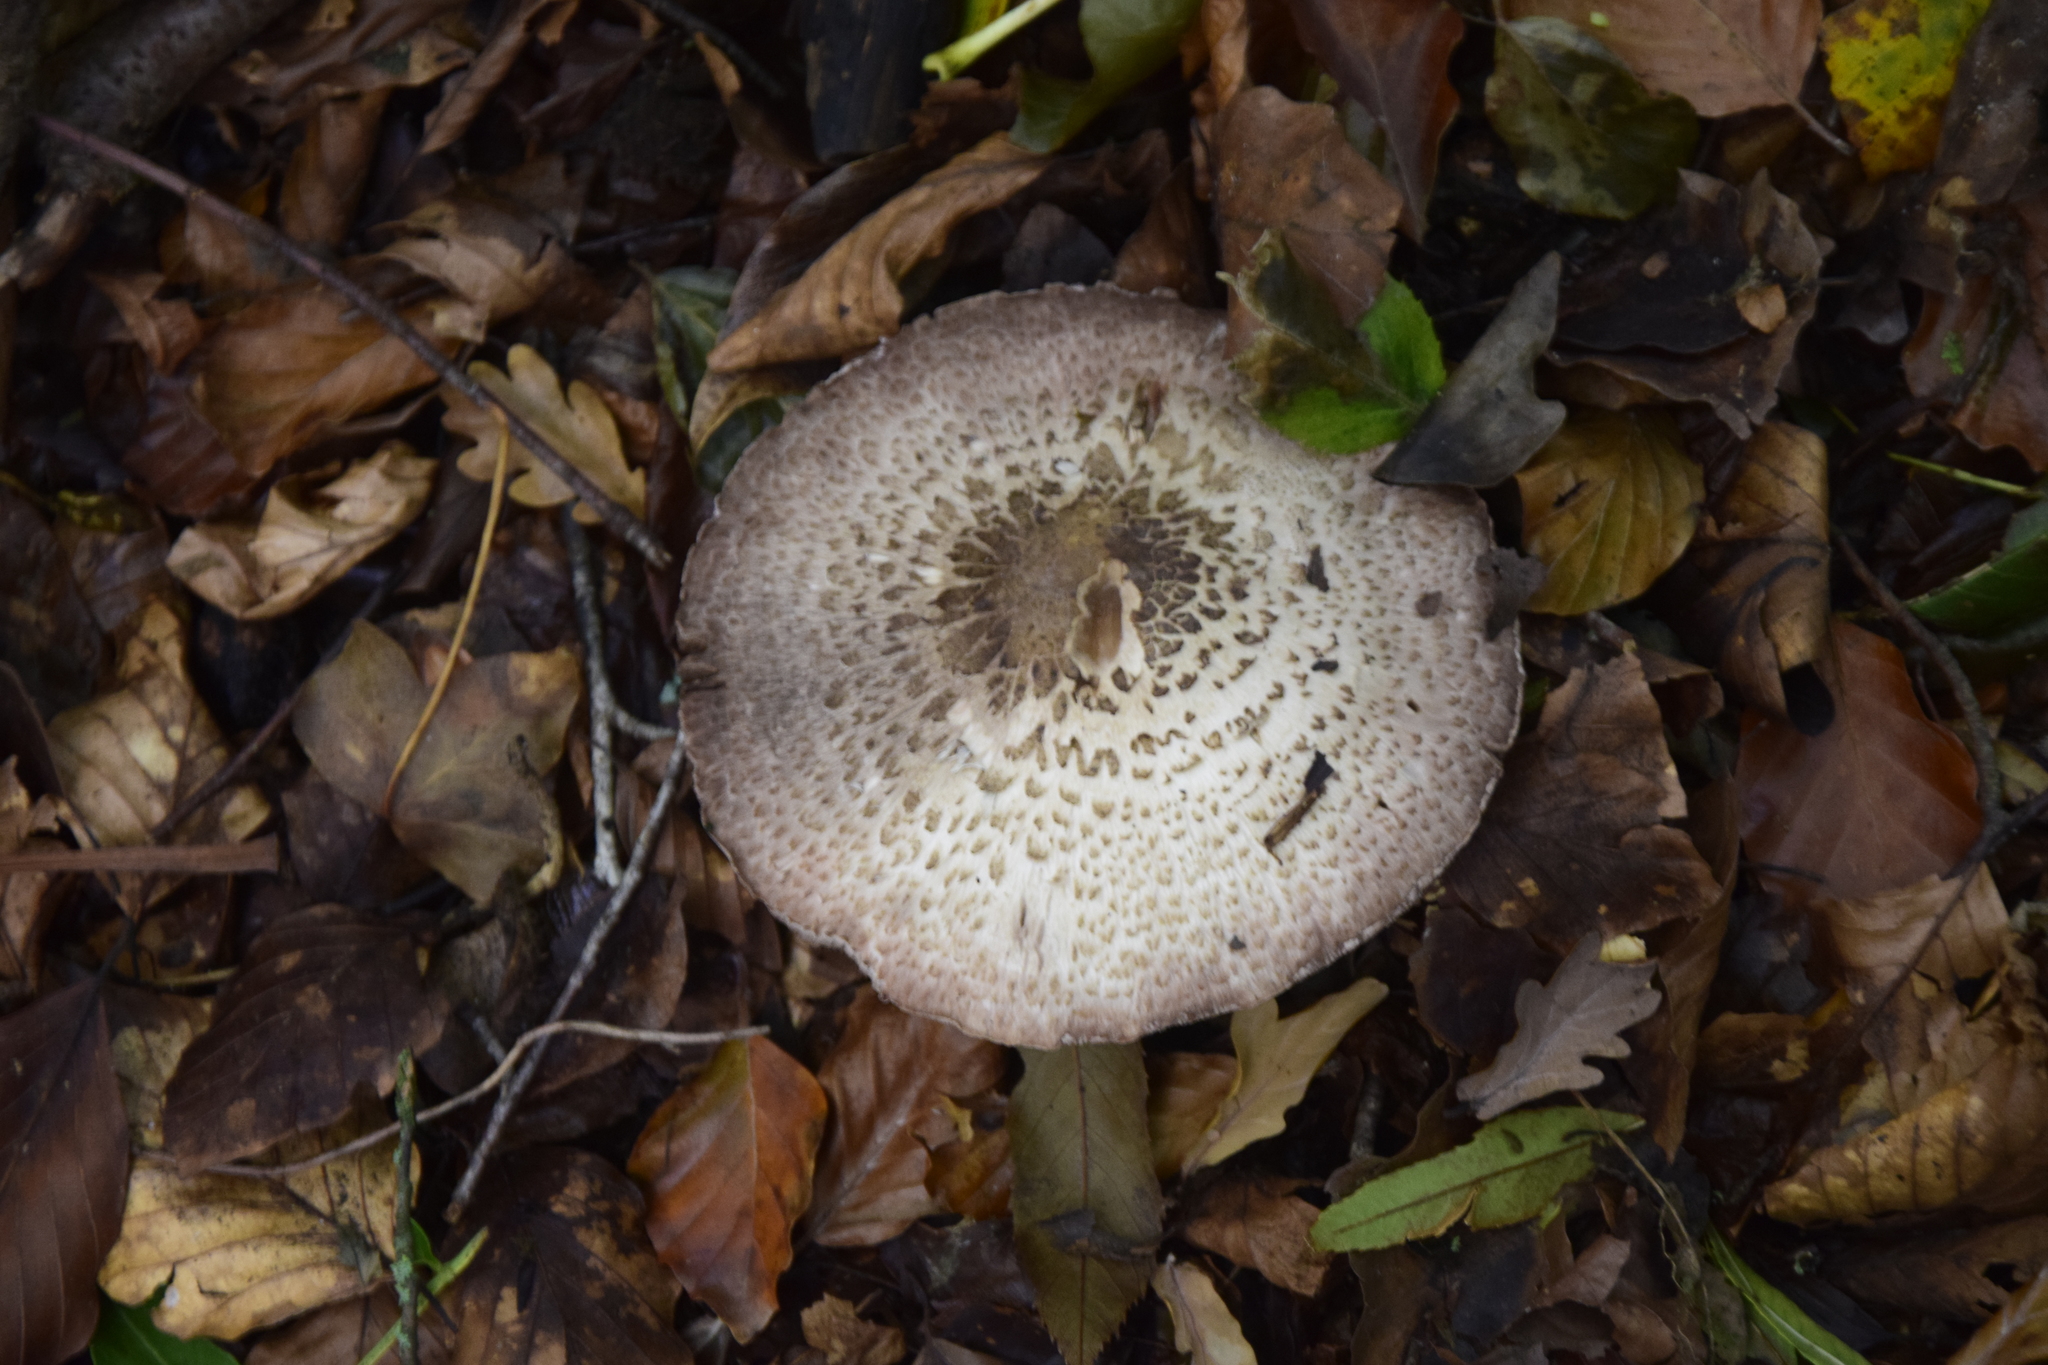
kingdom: Fungi
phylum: Basidiomycota
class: Agaricomycetes
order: Agaricales
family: Agaricaceae
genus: Macrolepiota
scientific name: Macrolepiota procera
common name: Parasol
